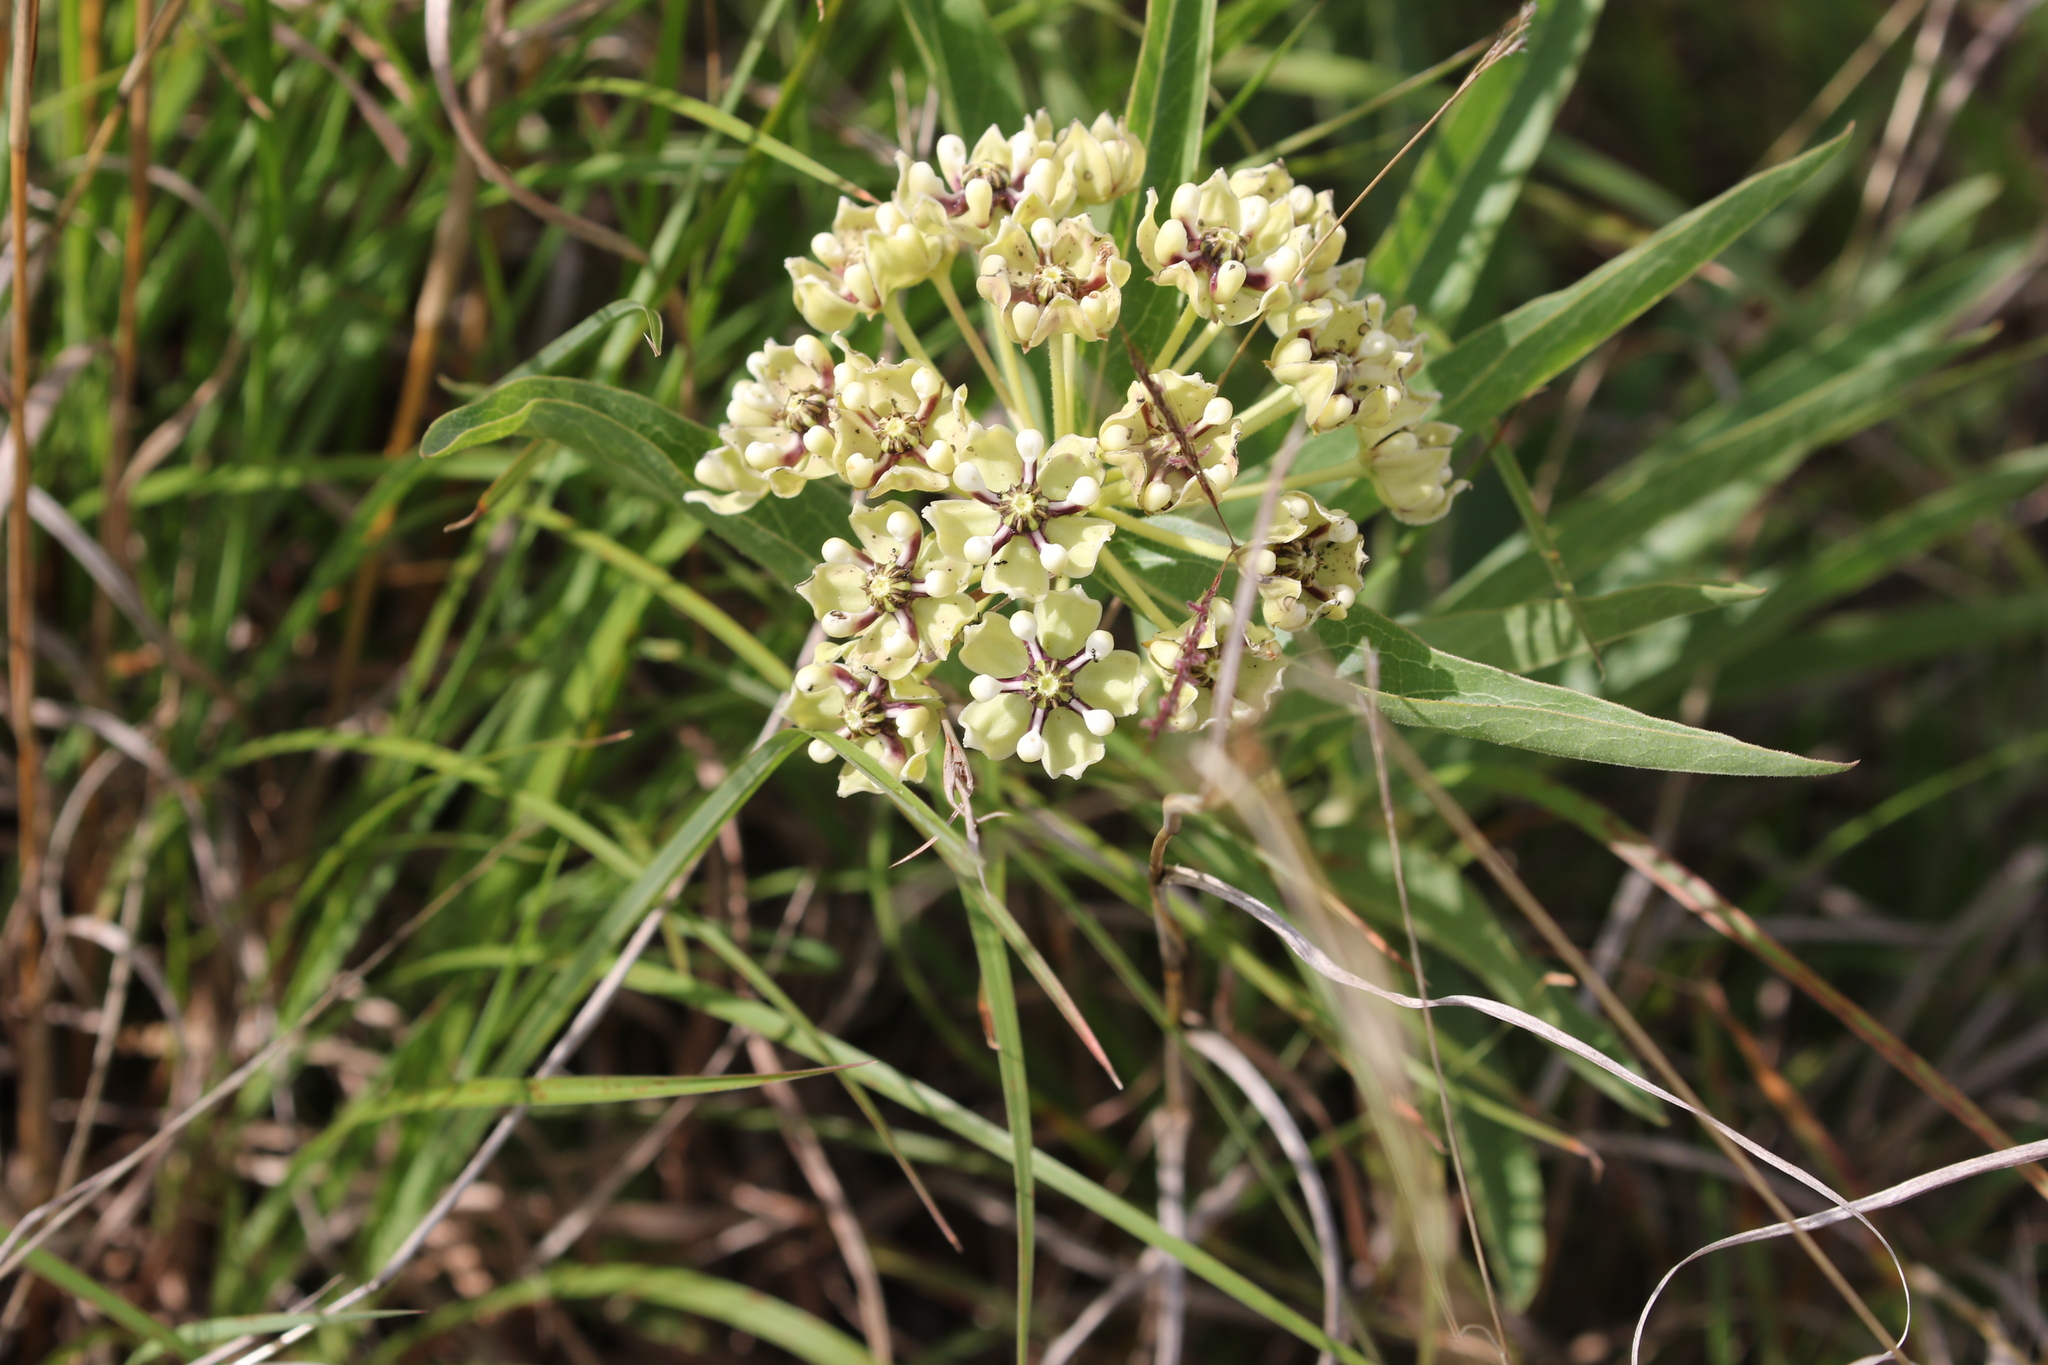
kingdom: Plantae
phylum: Tracheophyta
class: Magnoliopsida
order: Gentianales
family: Apocynaceae
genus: Asclepias
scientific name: Asclepias asperula
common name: Antelope horns
